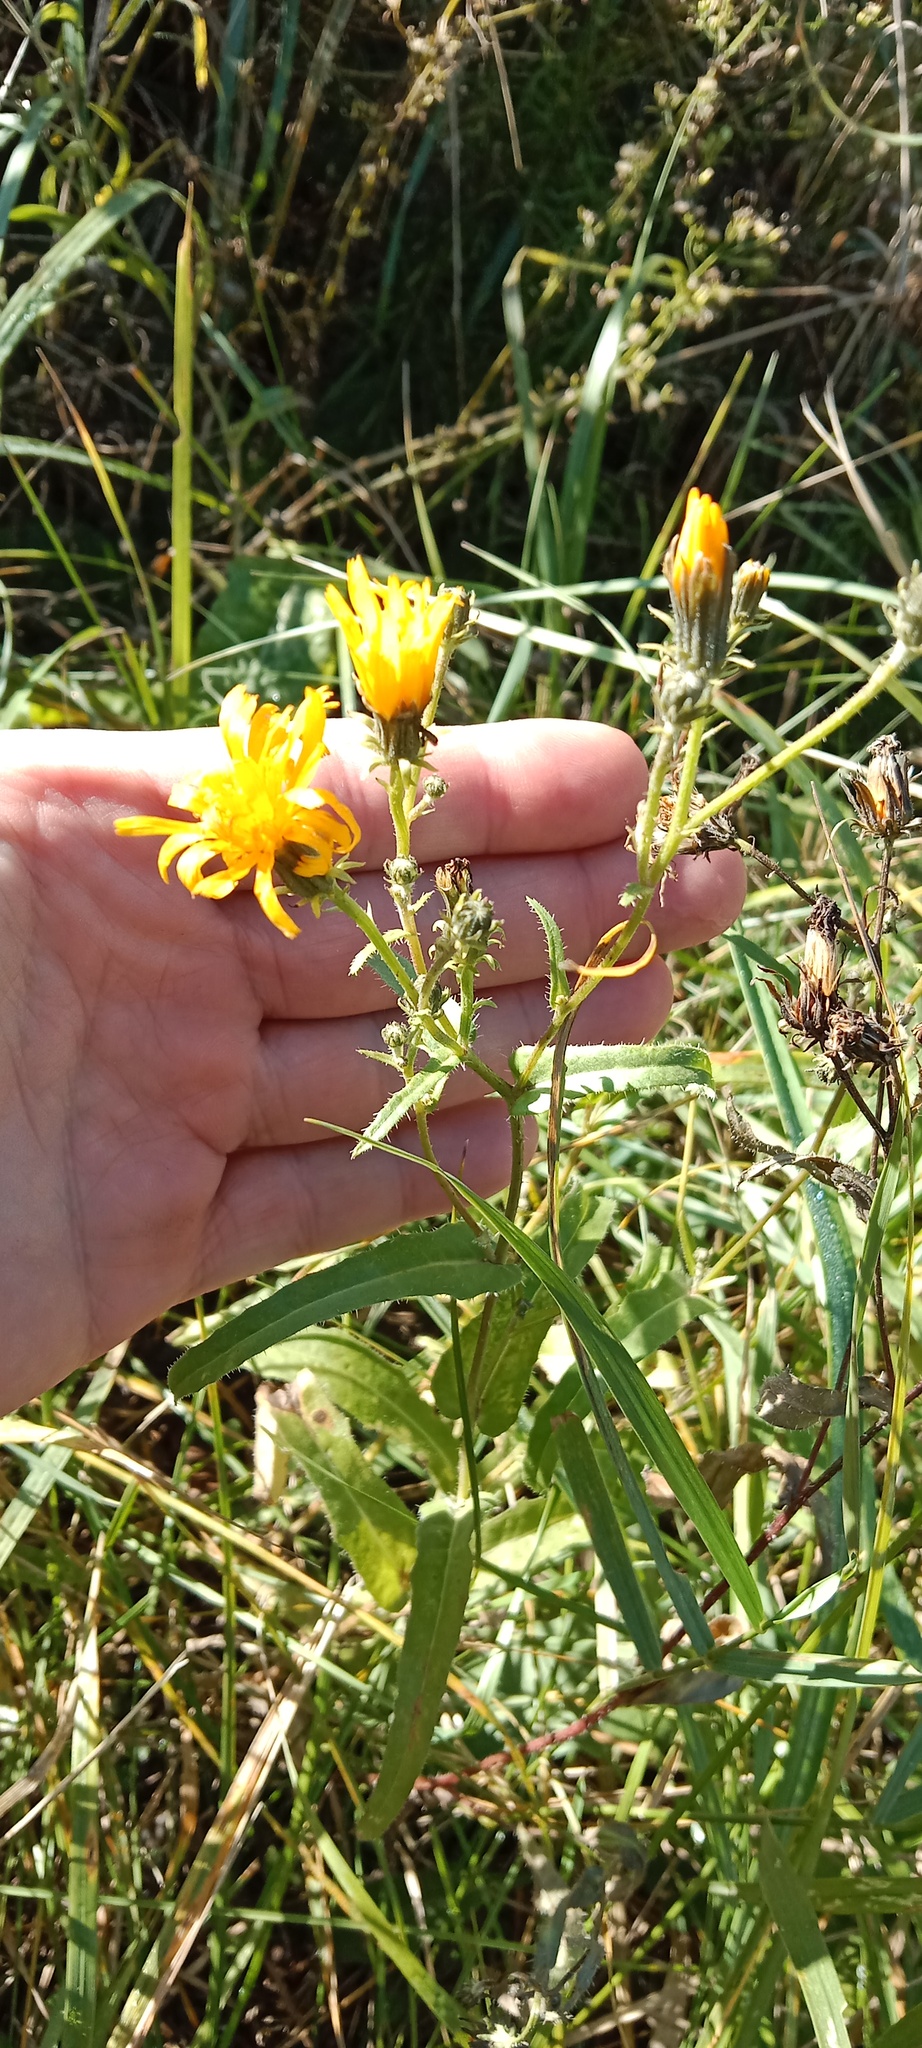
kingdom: Plantae
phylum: Tracheophyta
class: Magnoliopsida
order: Asterales
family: Asteraceae
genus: Picris
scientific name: Picris hieracioides
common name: Hawkweed oxtongue
